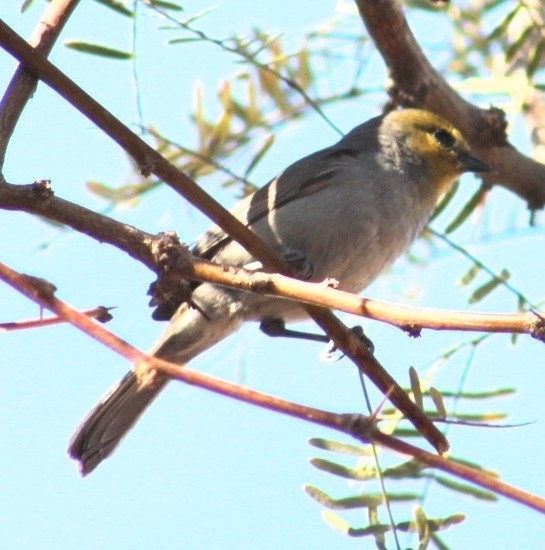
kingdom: Animalia
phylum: Chordata
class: Aves
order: Passeriformes
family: Remizidae
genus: Auriparus
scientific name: Auriparus flaviceps
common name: Verdin
